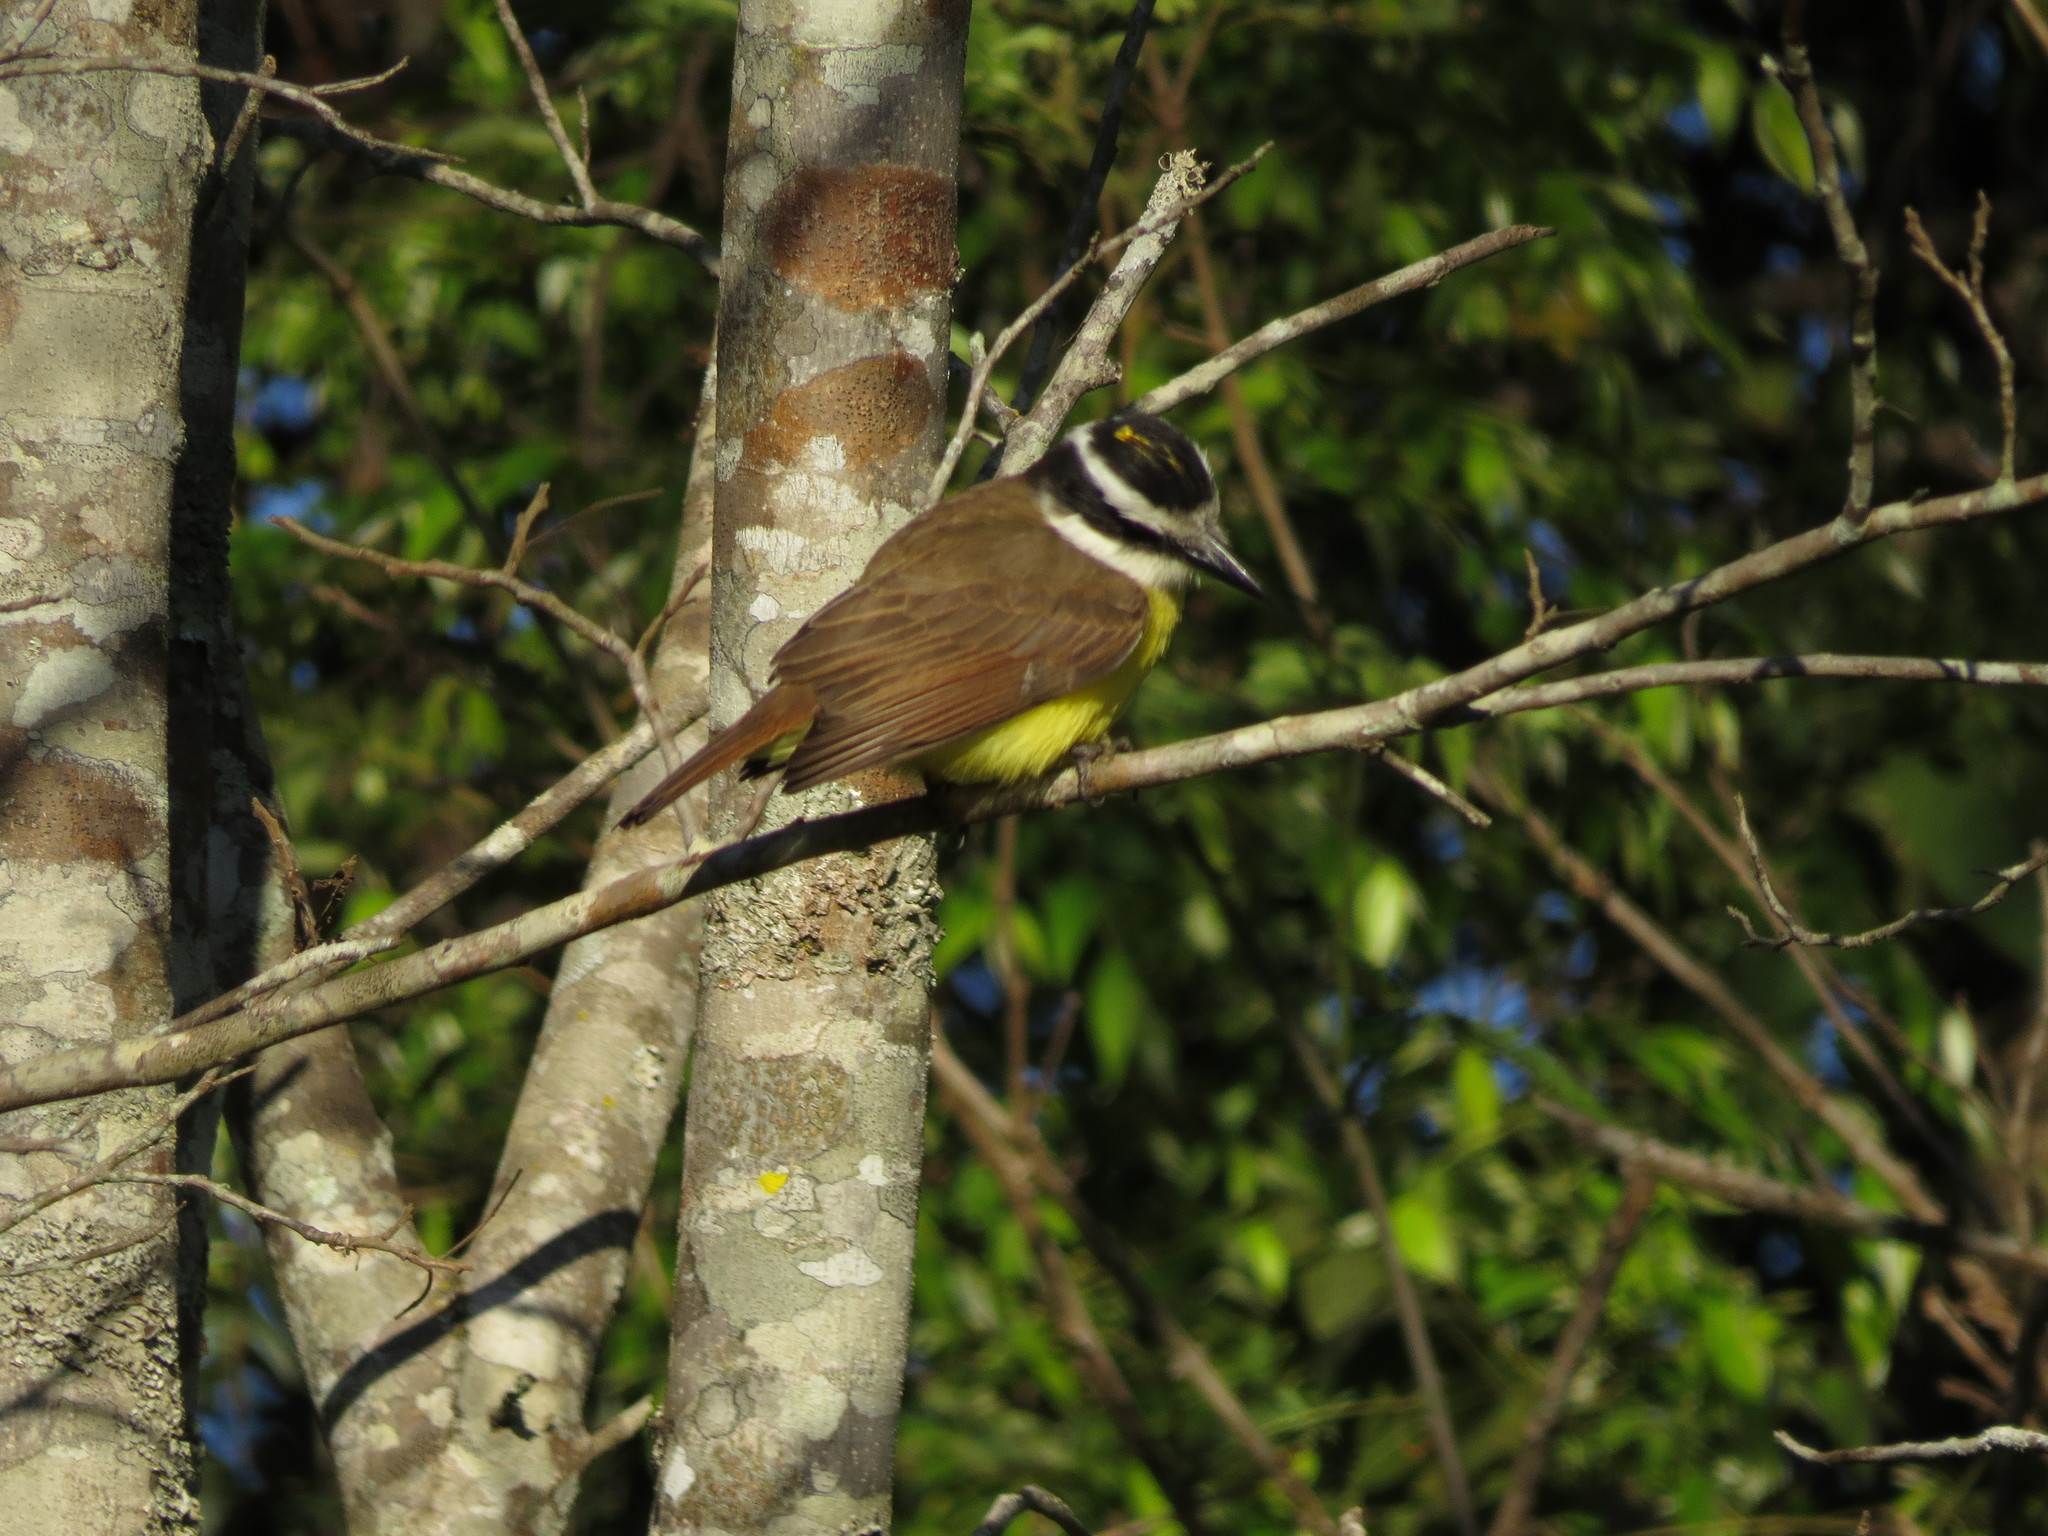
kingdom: Animalia
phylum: Chordata
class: Aves
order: Passeriformes
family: Tyrannidae
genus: Pitangus
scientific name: Pitangus sulphuratus
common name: Great kiskadee
